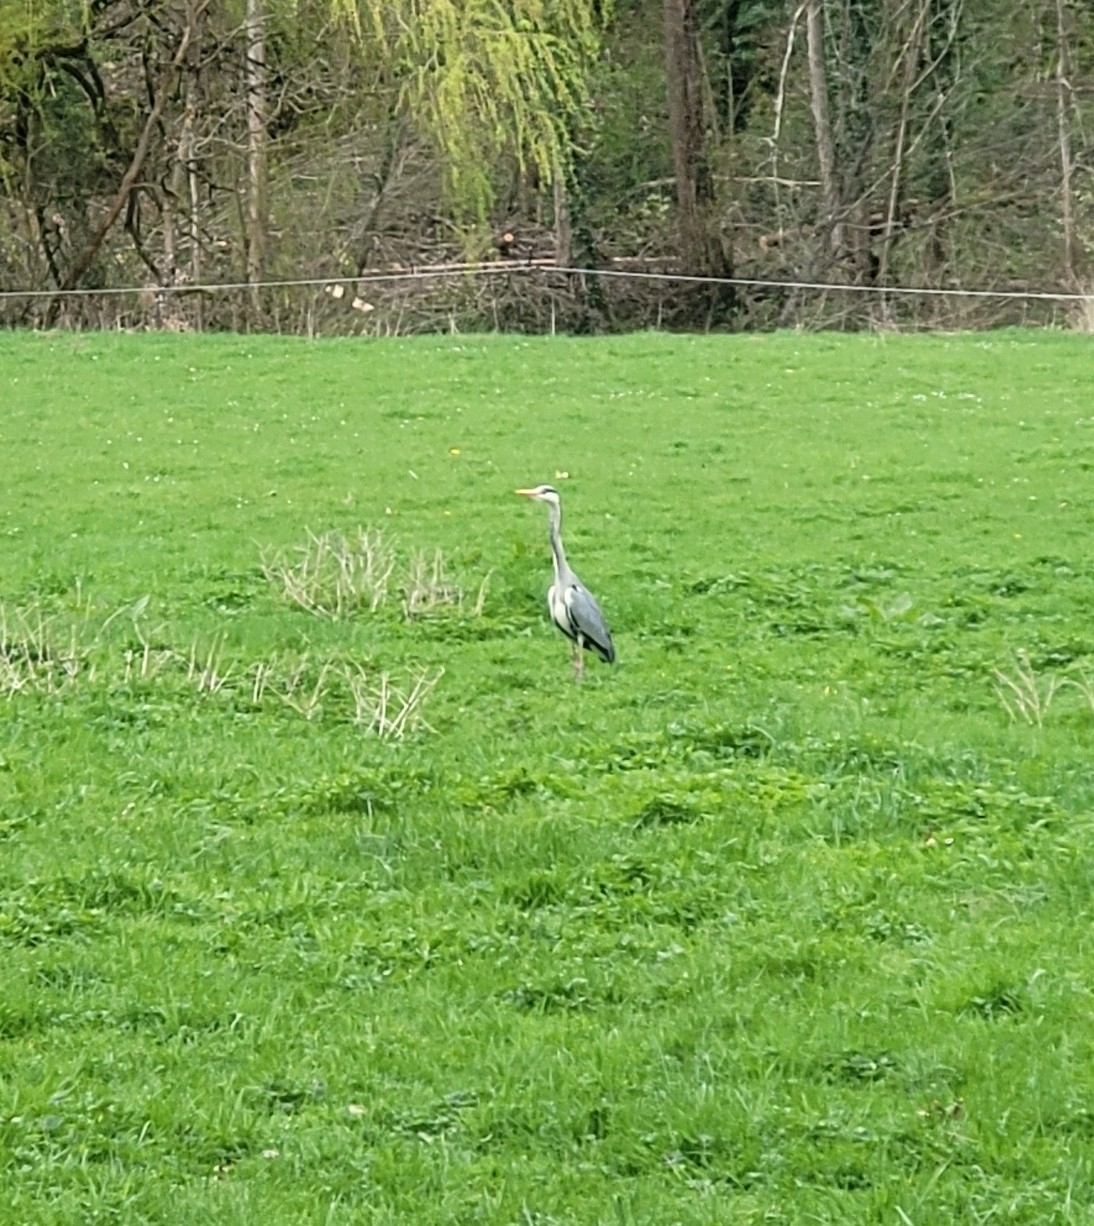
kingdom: Animalia
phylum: Chordata
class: Aves
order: Pelecaniformes
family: Ardeidae
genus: Ardea
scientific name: Ardea cinerea
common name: Grey heron
